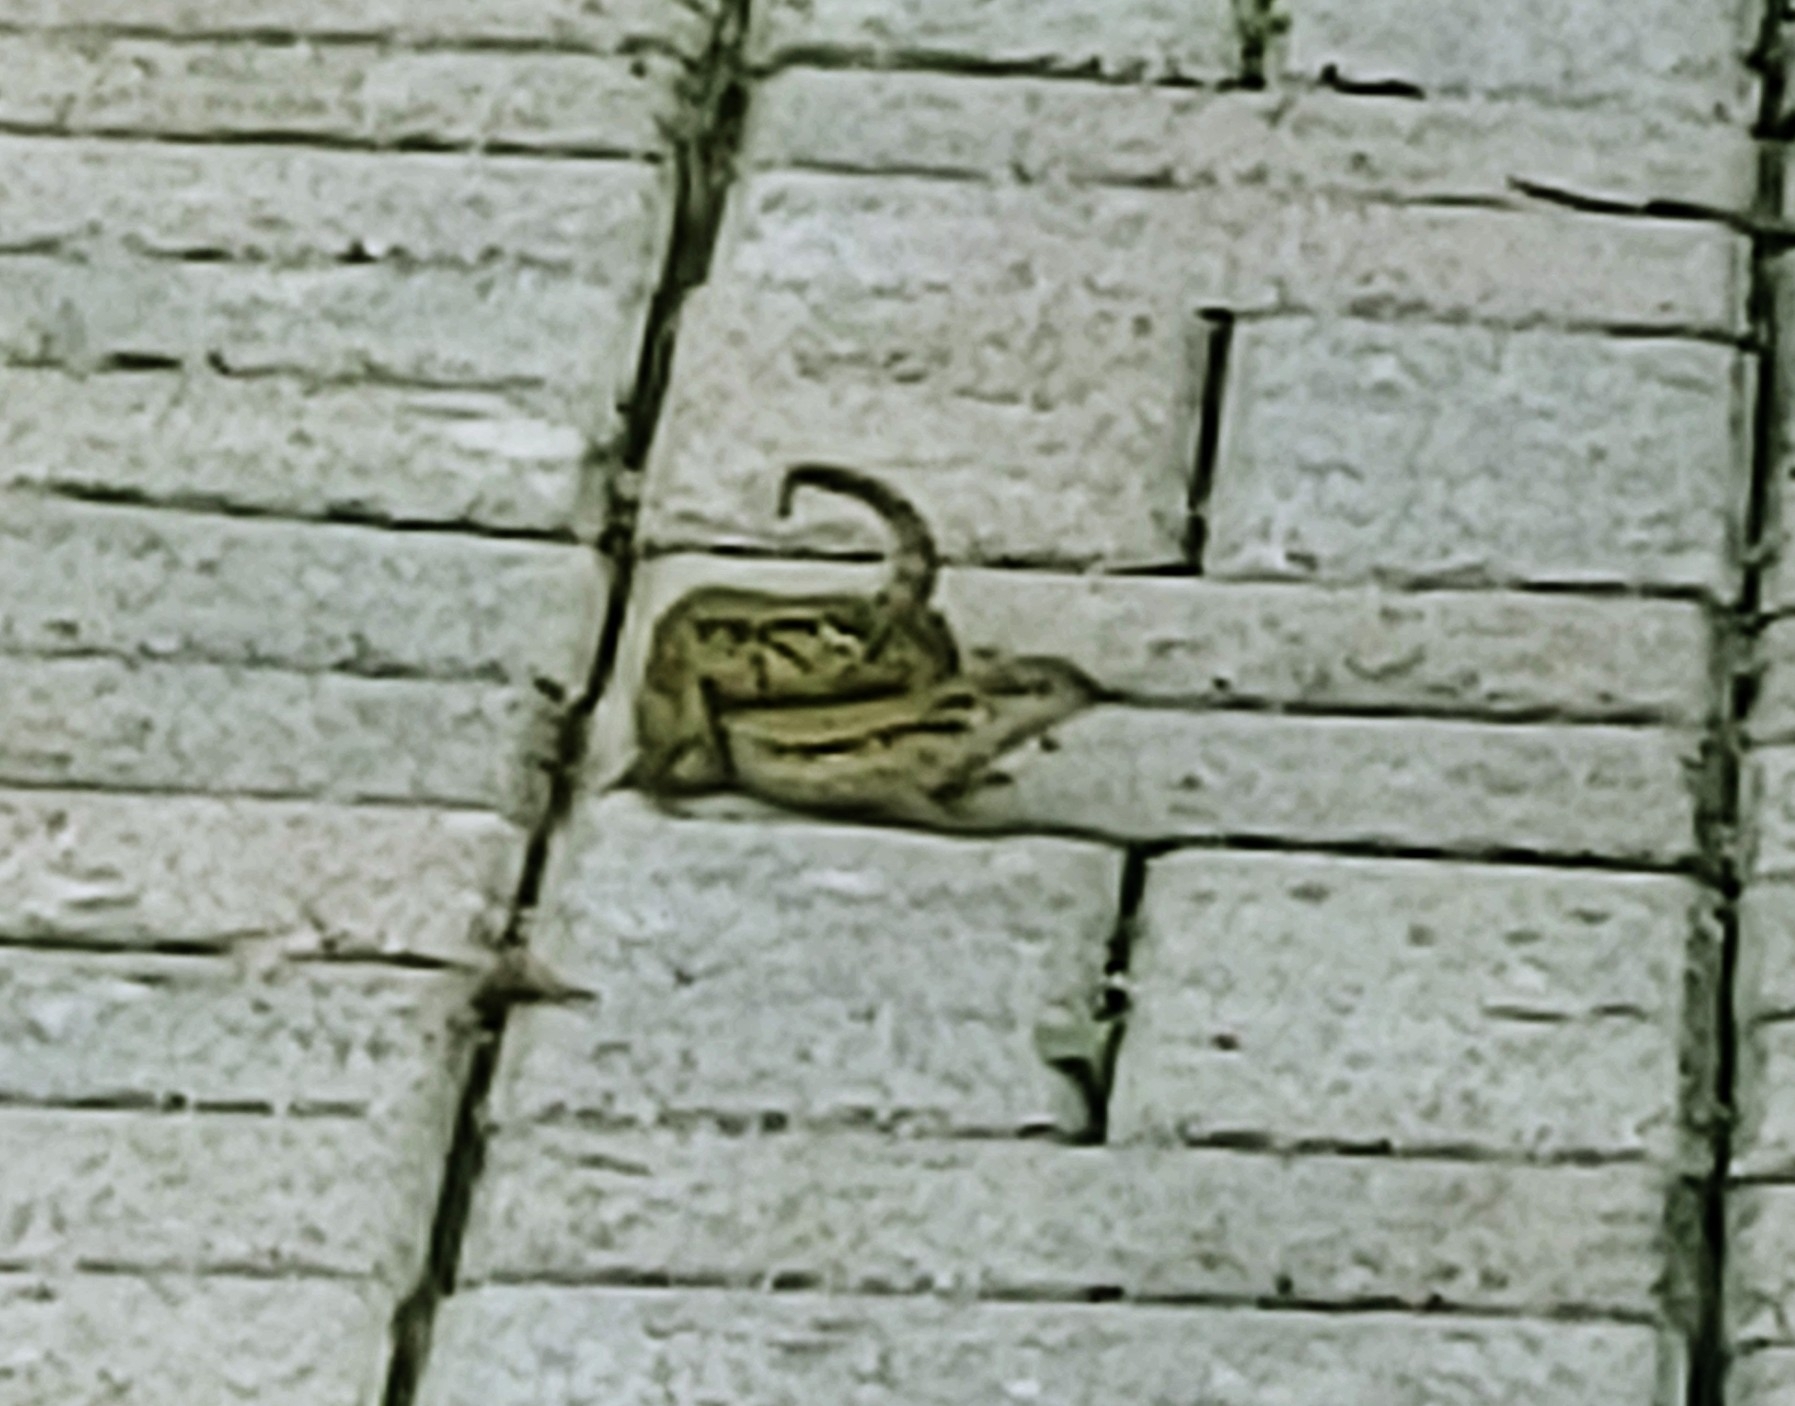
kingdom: Animalia
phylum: Chordata
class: Squamata
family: Leiocephalidae
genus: Leiocephalus
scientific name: Leiocephalus carinatus
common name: Northern curly-tailed lizard
